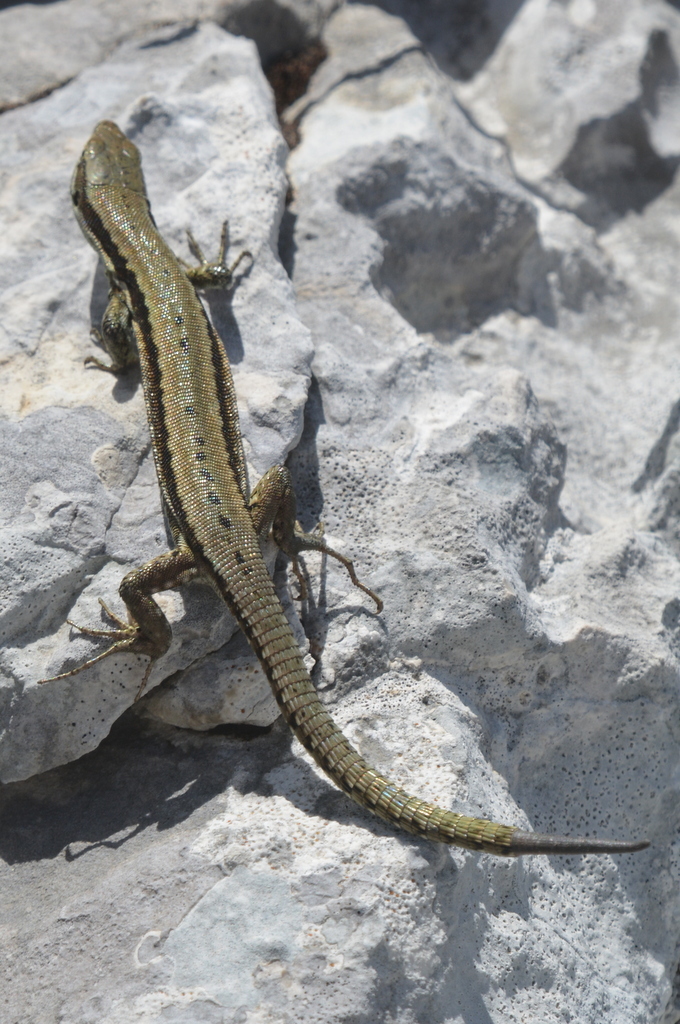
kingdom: Animalia
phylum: Chordata
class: Squamata
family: Lacertidae
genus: Podarcis
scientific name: Podarcis muralis
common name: Common wall lizard
